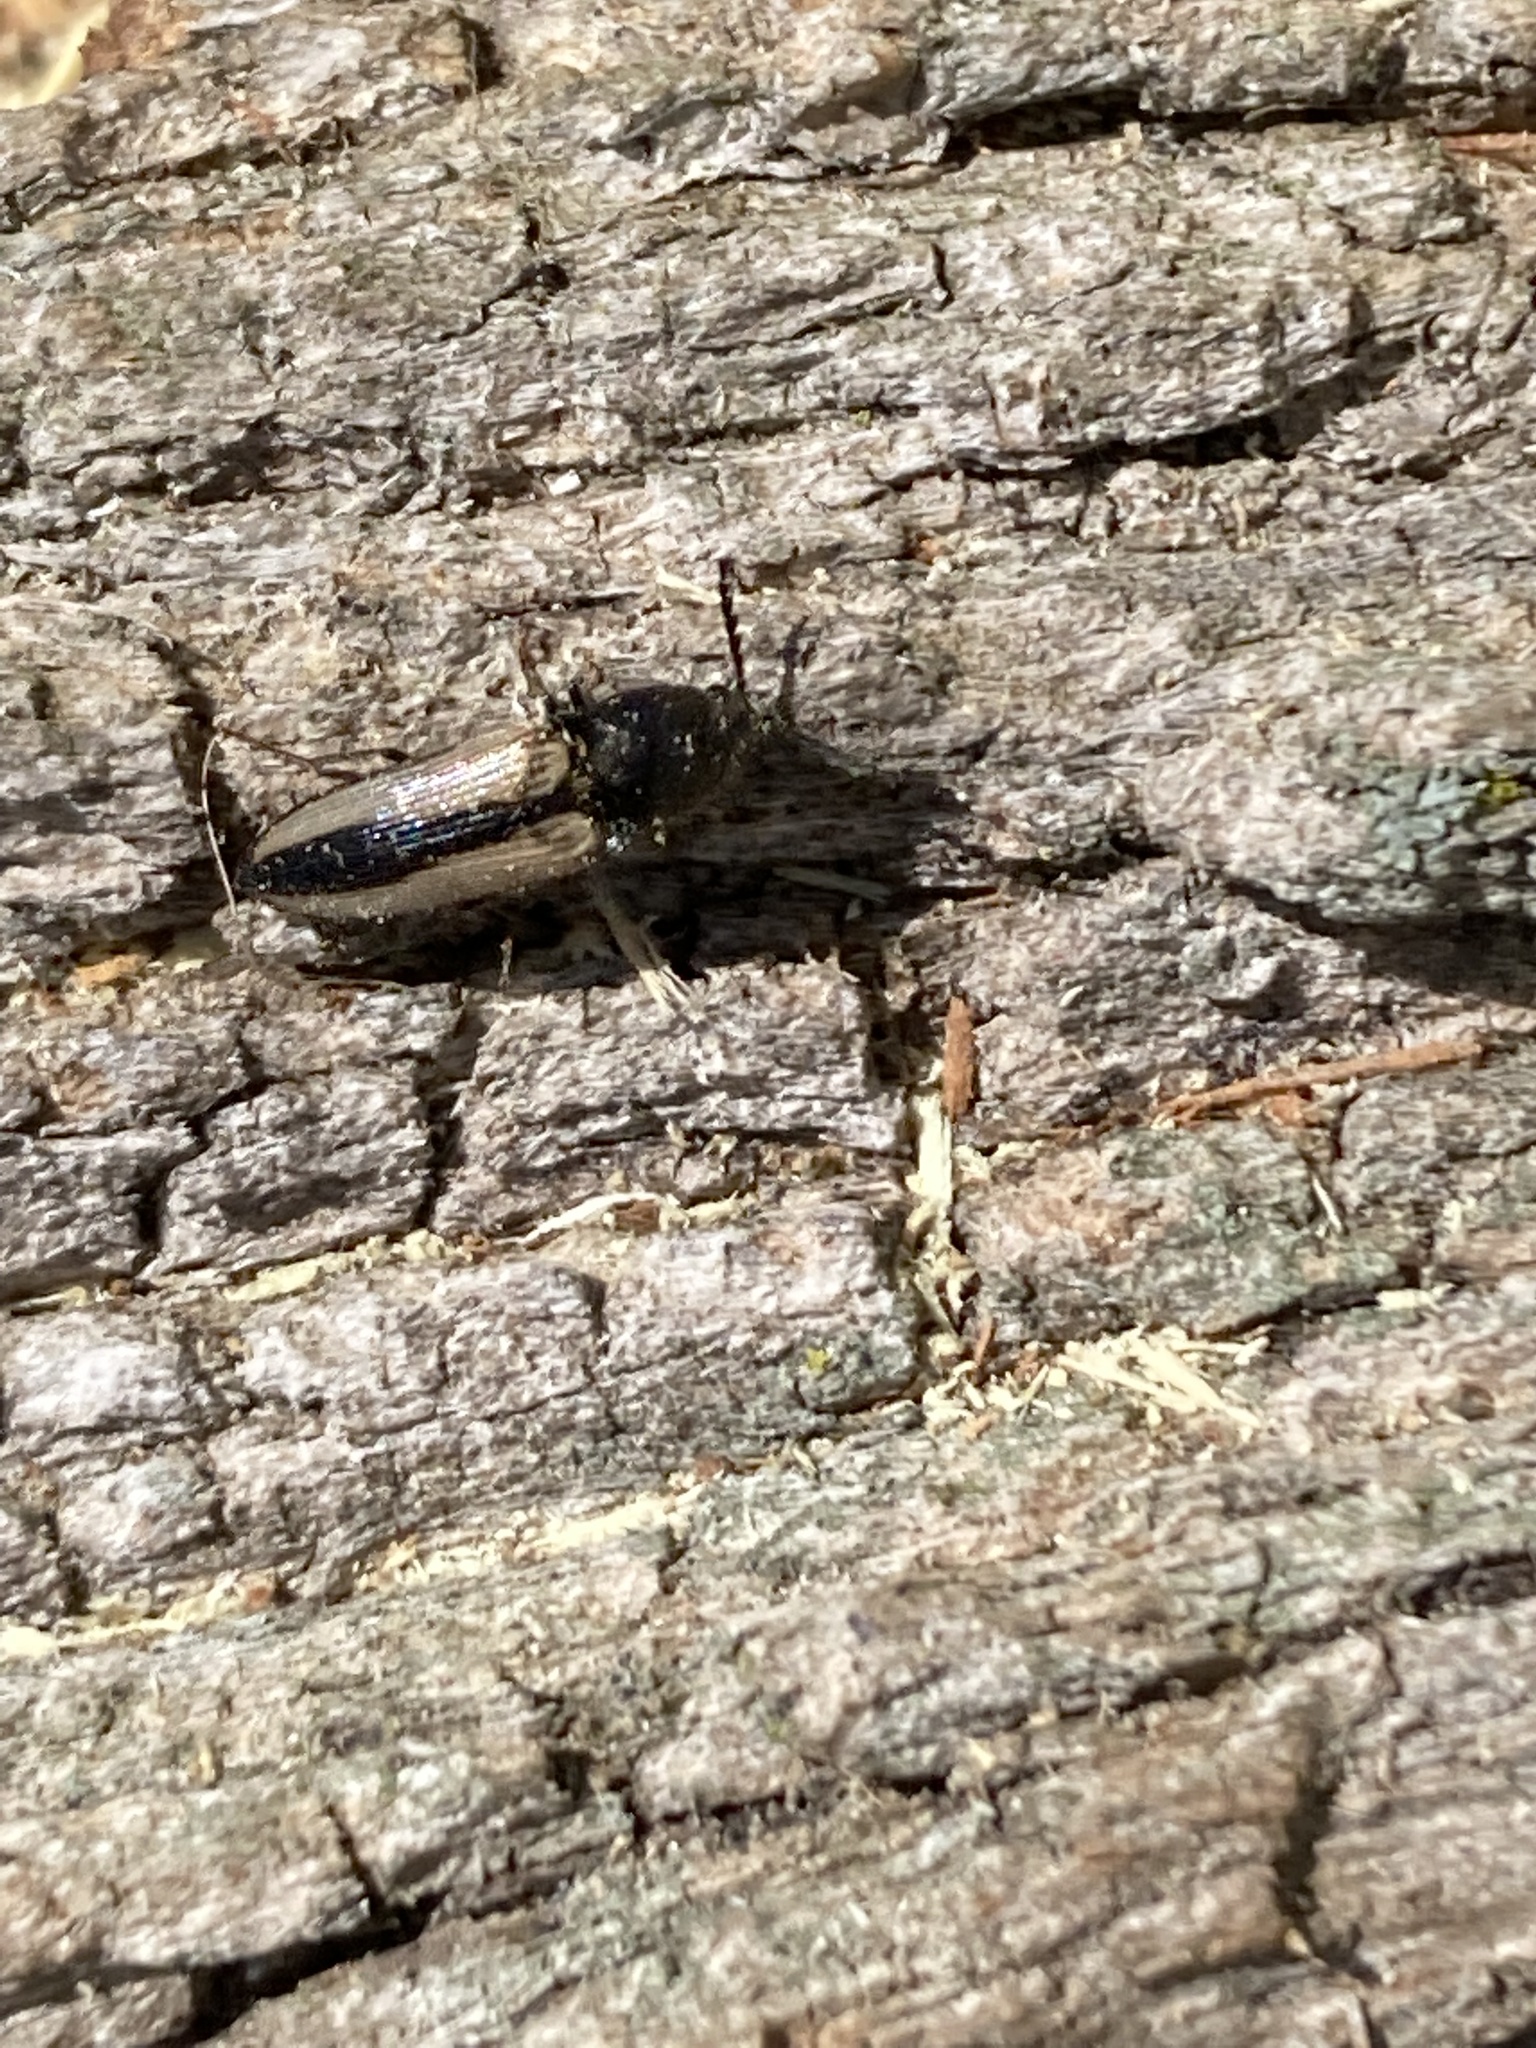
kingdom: Animalia
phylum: Arthropoda
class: Insecta
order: Coleoptera
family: Elateridae
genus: Ampedus
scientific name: Ampedus sayi
